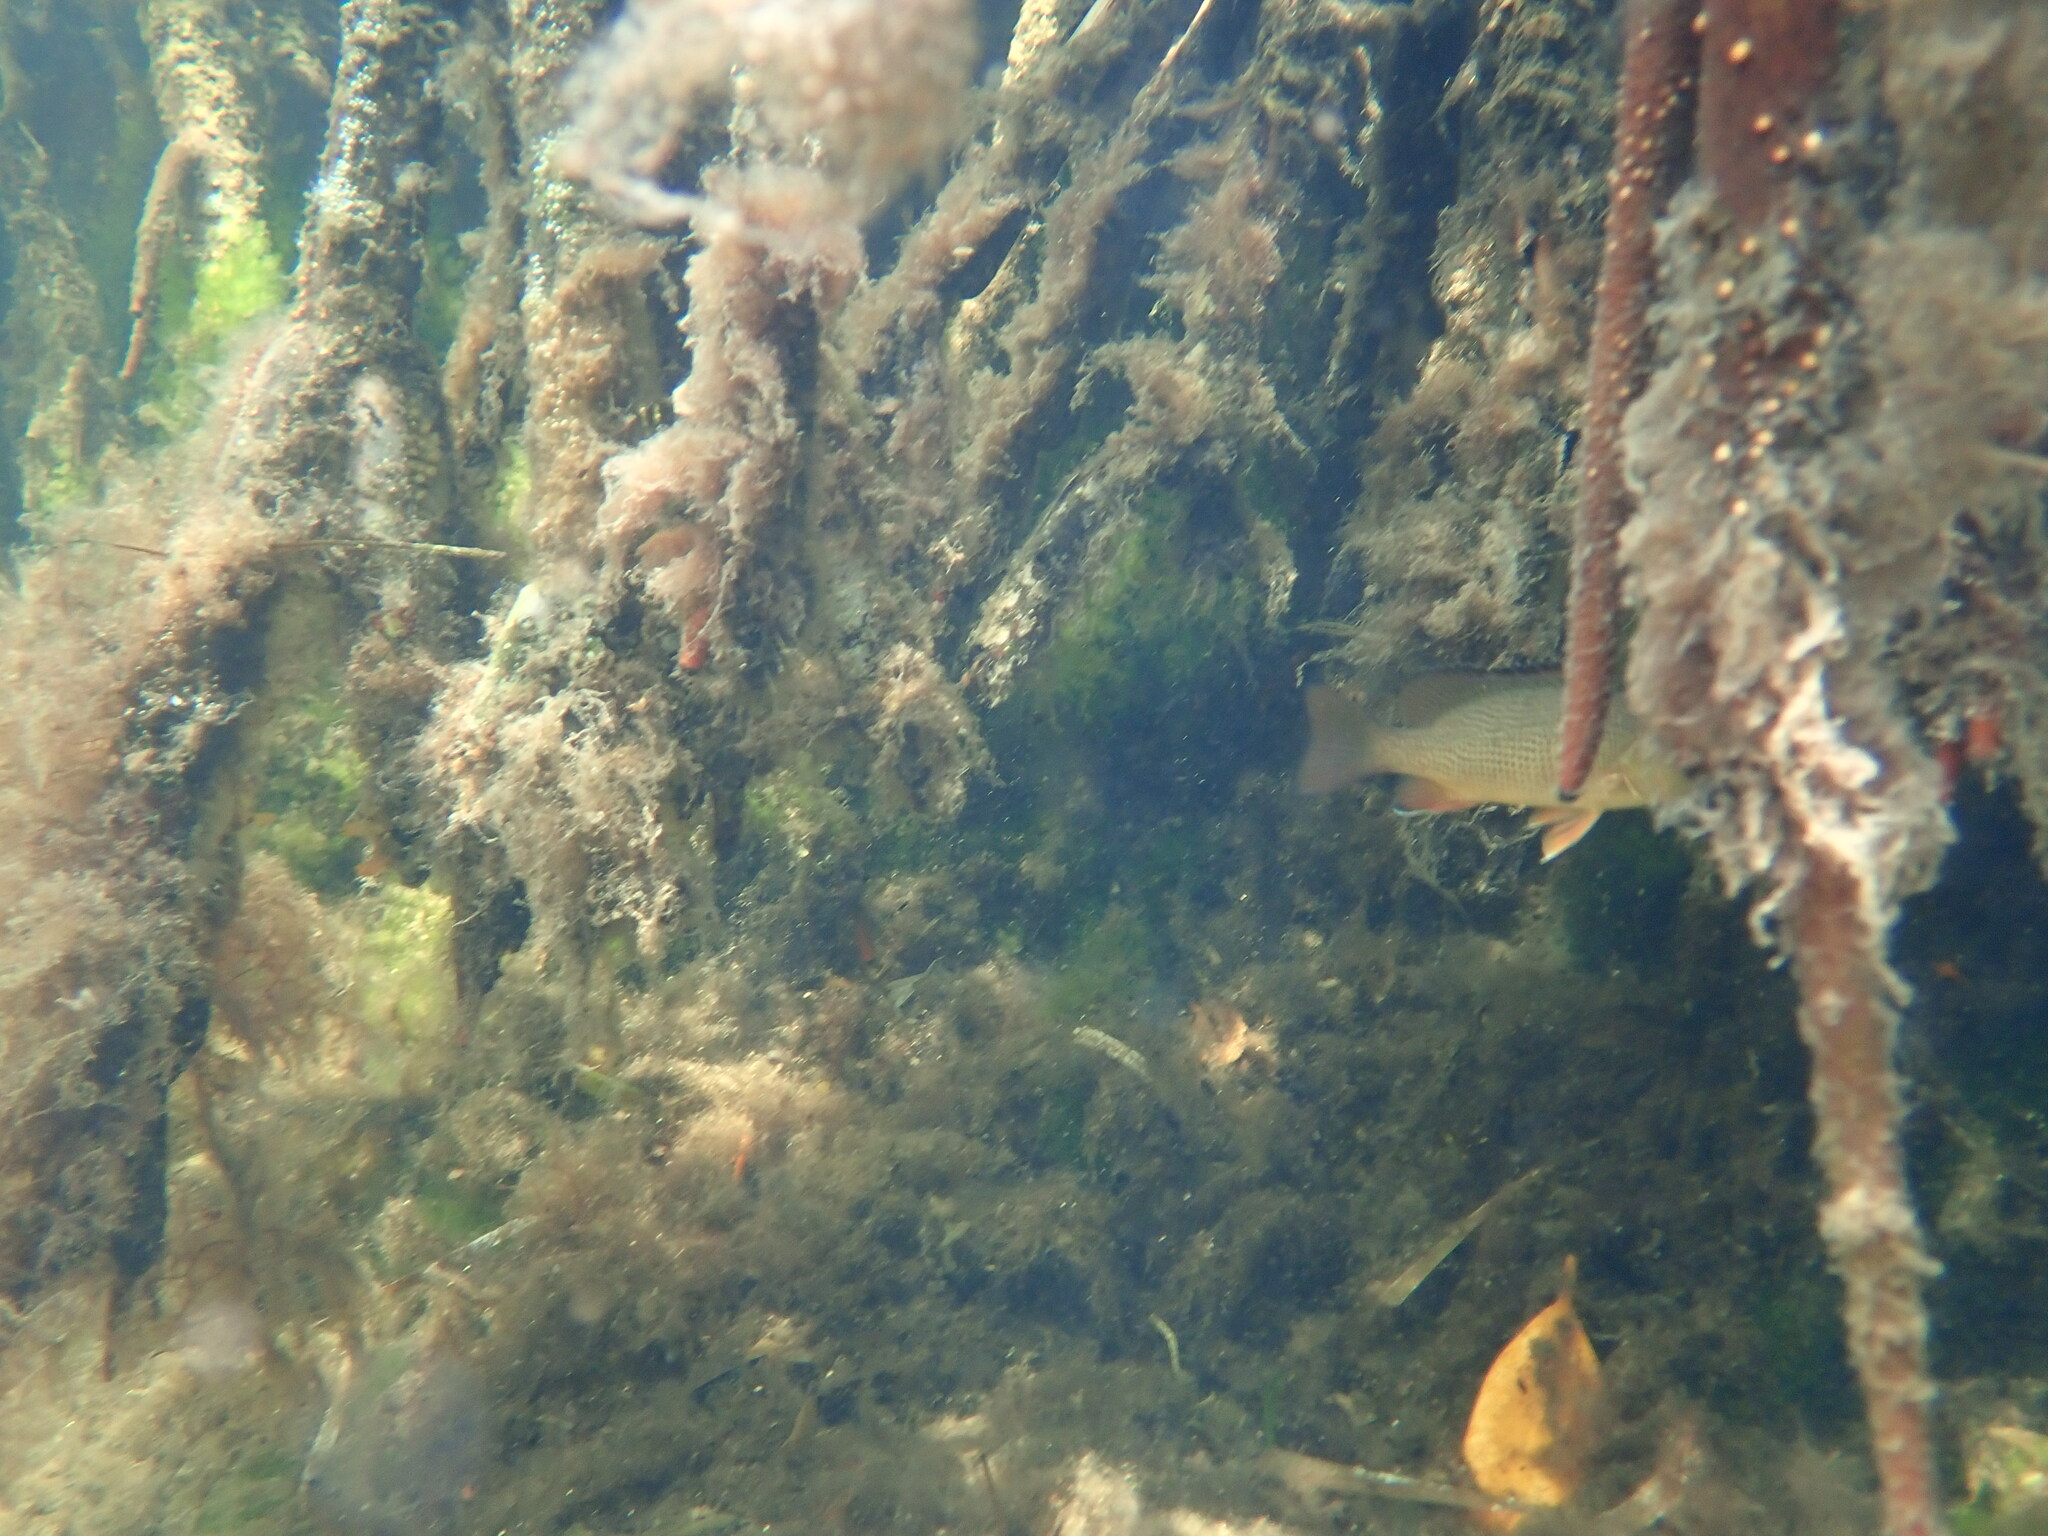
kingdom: Animalia
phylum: Chordata
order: Perciformes
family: Lutjanidae
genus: Lutjanus
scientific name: Lutjanus griseus
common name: Gray snapper
